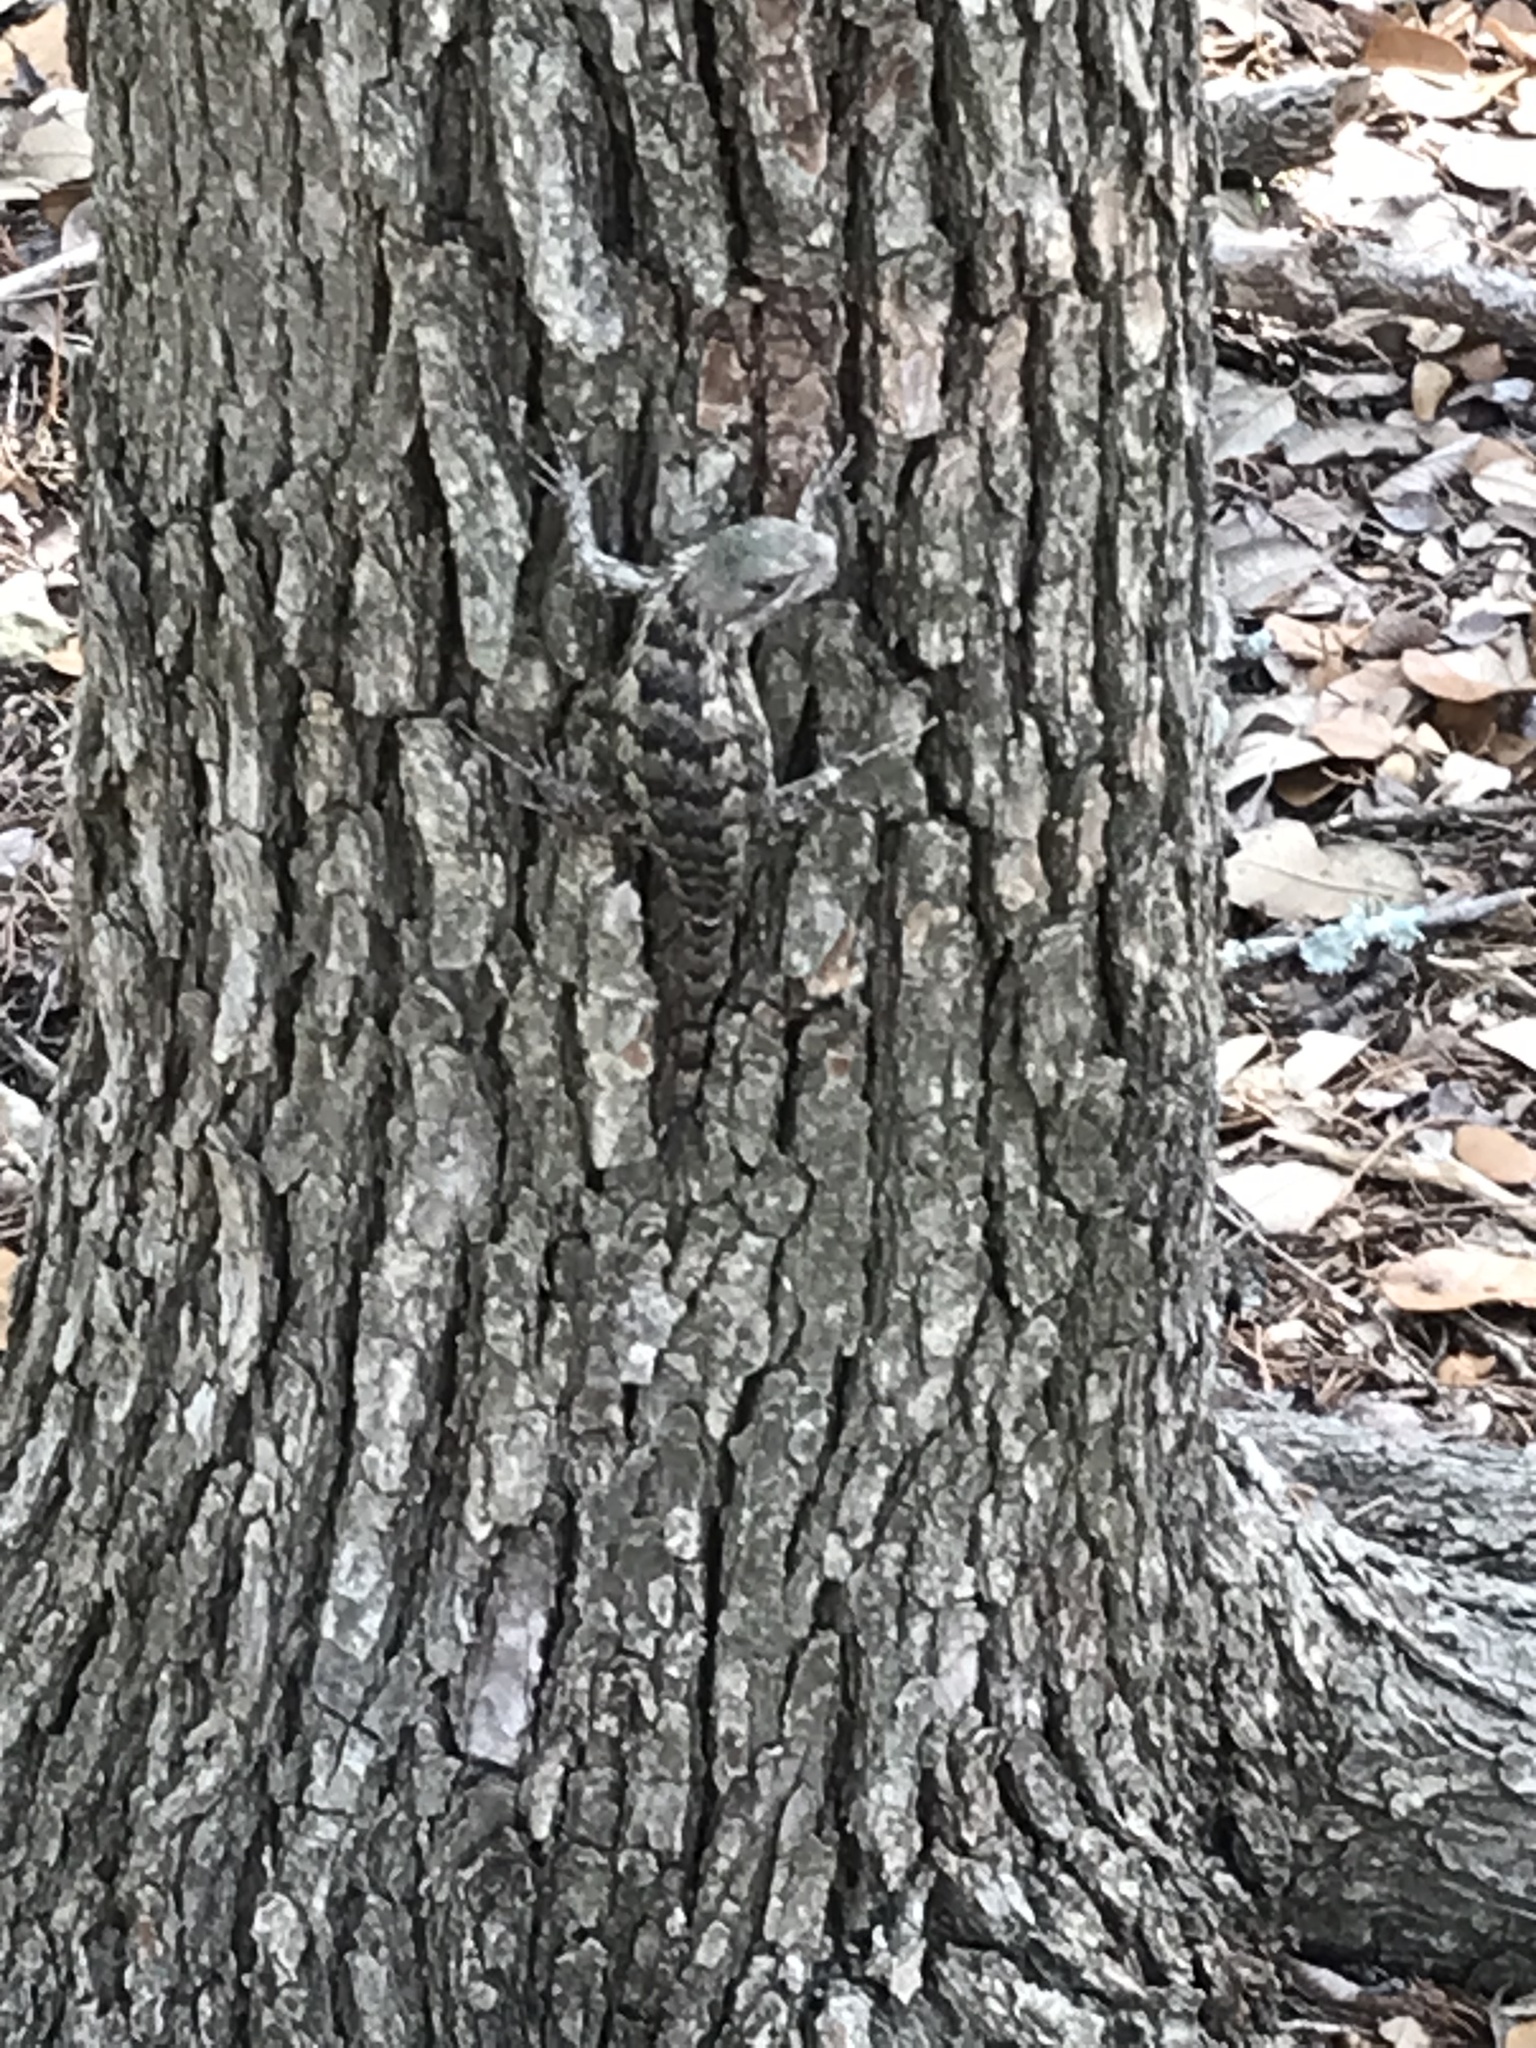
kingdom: Animalia
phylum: Chordata
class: Squamata
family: Phrynosomatidae
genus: Sceloporus
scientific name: Sceloporus olivaceus
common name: Texas spiny lizard
